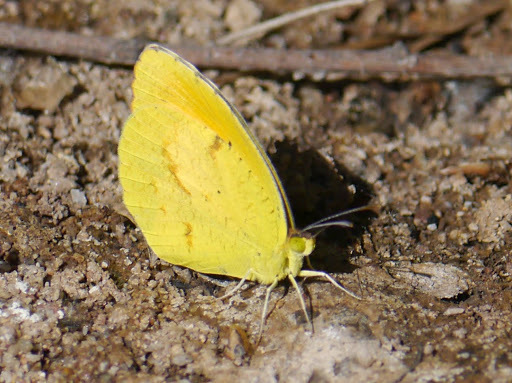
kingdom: Animalia
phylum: Arthropoda
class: Insecta
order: Lepidoptera
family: Pieridae
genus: Abaeis
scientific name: Abaeis nicippe
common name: Sleepy orange
